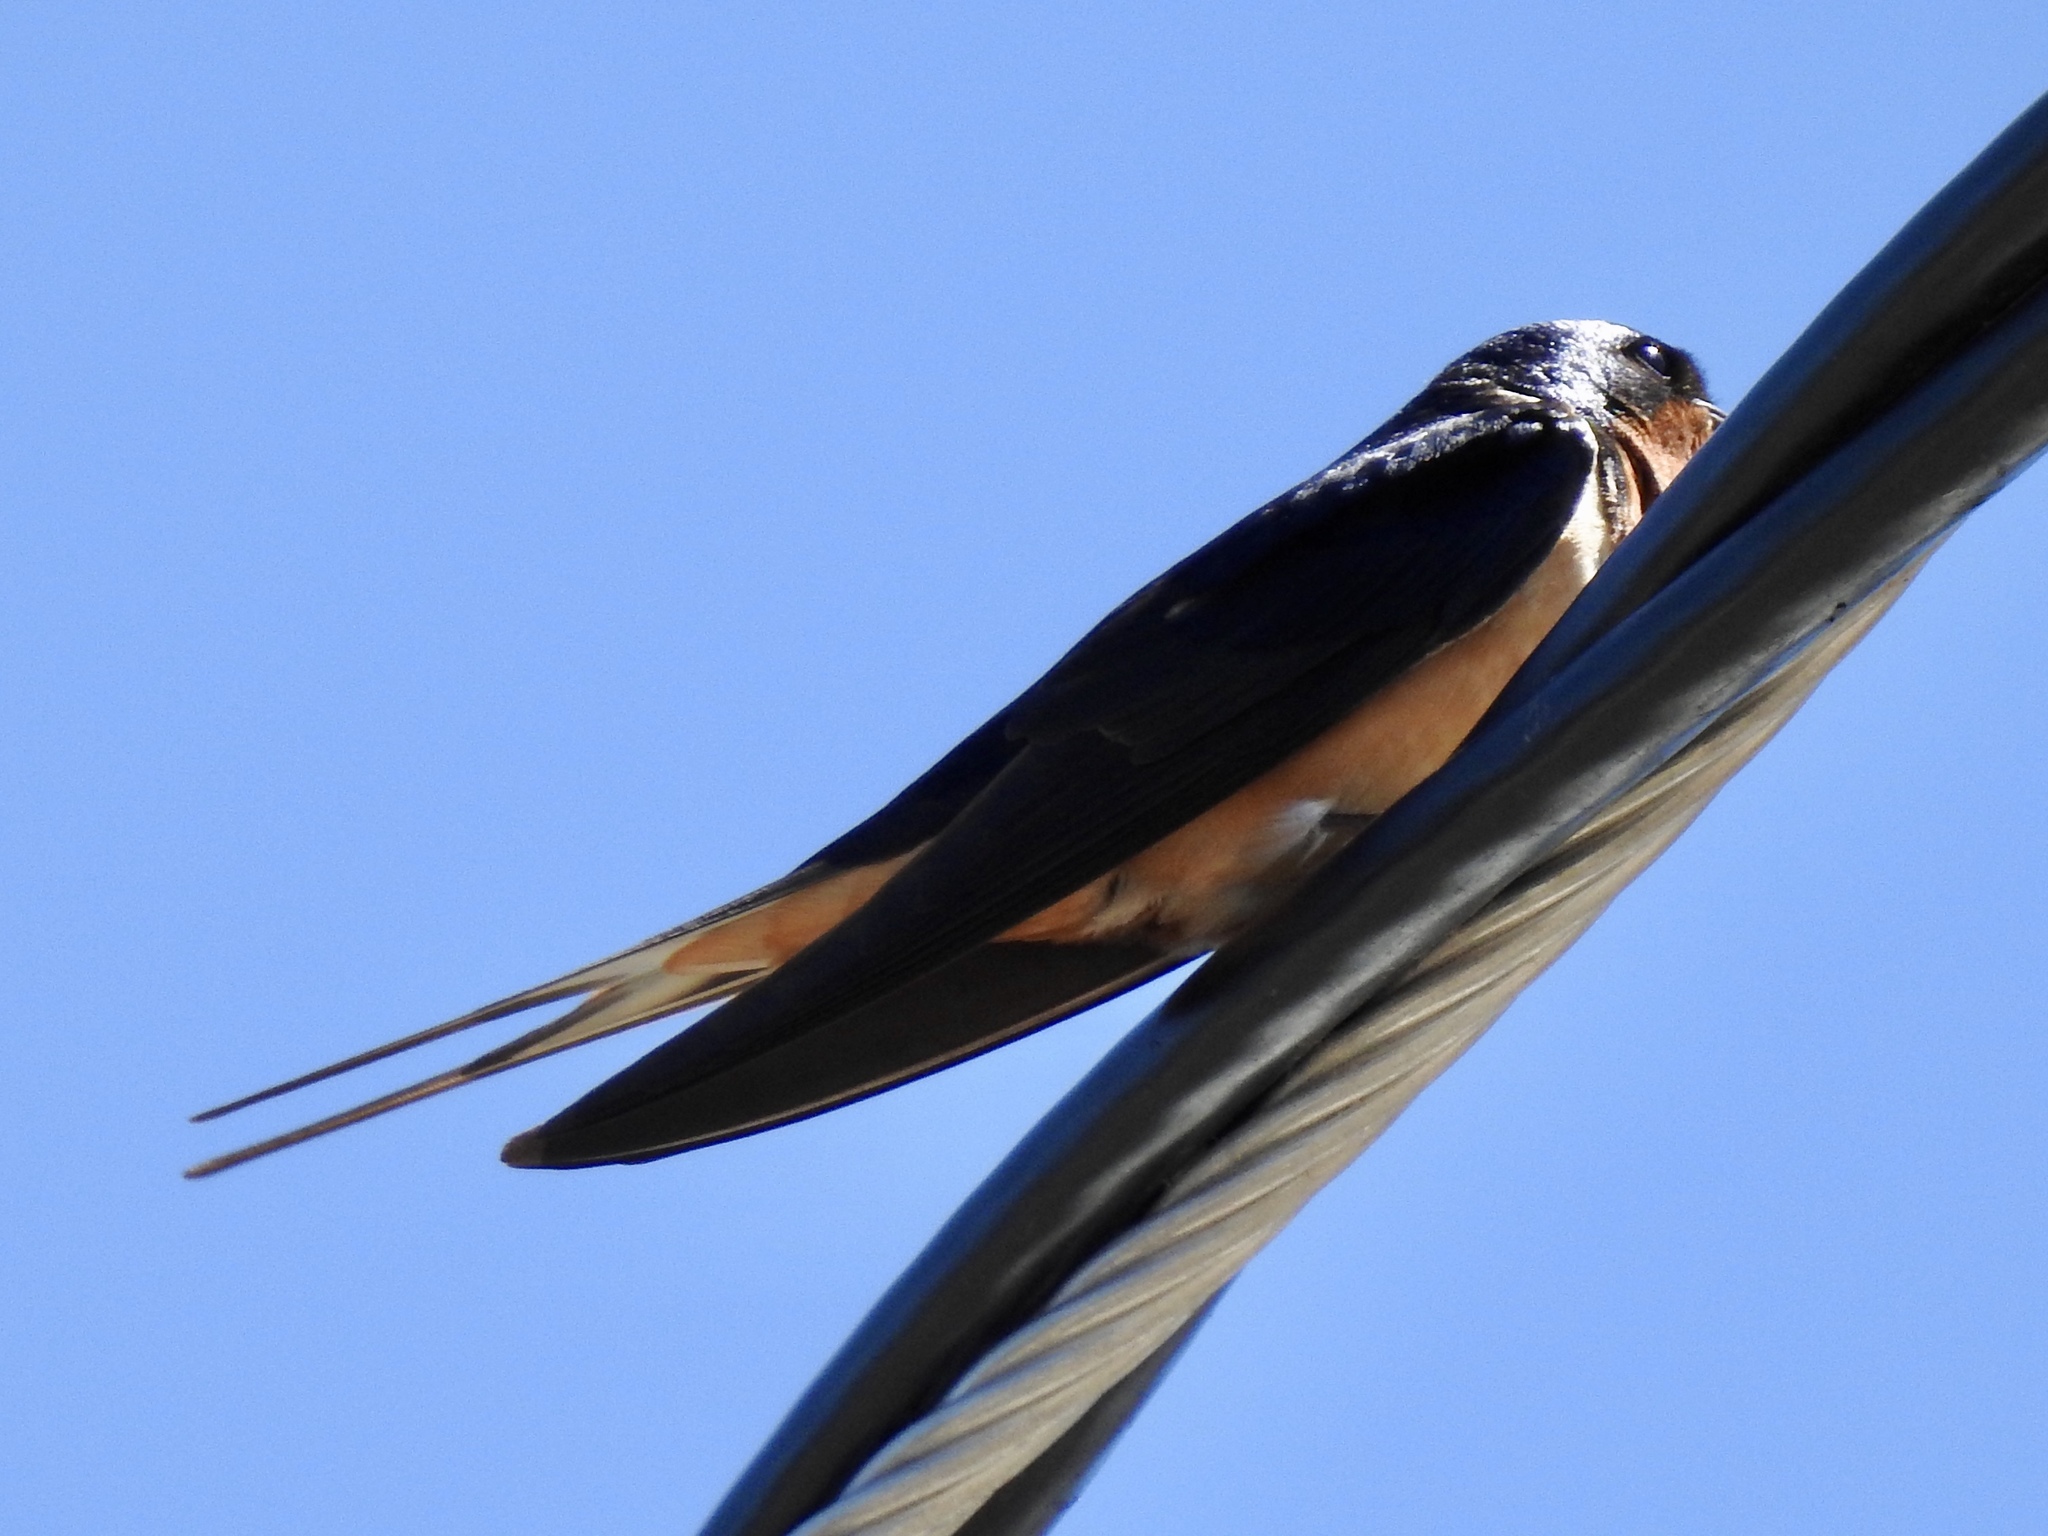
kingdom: Animalia
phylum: Chordata
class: Aves
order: Passeriformes
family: Hirundinidae
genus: Hirundo
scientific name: Hirundo rustica
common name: Barn swallow
